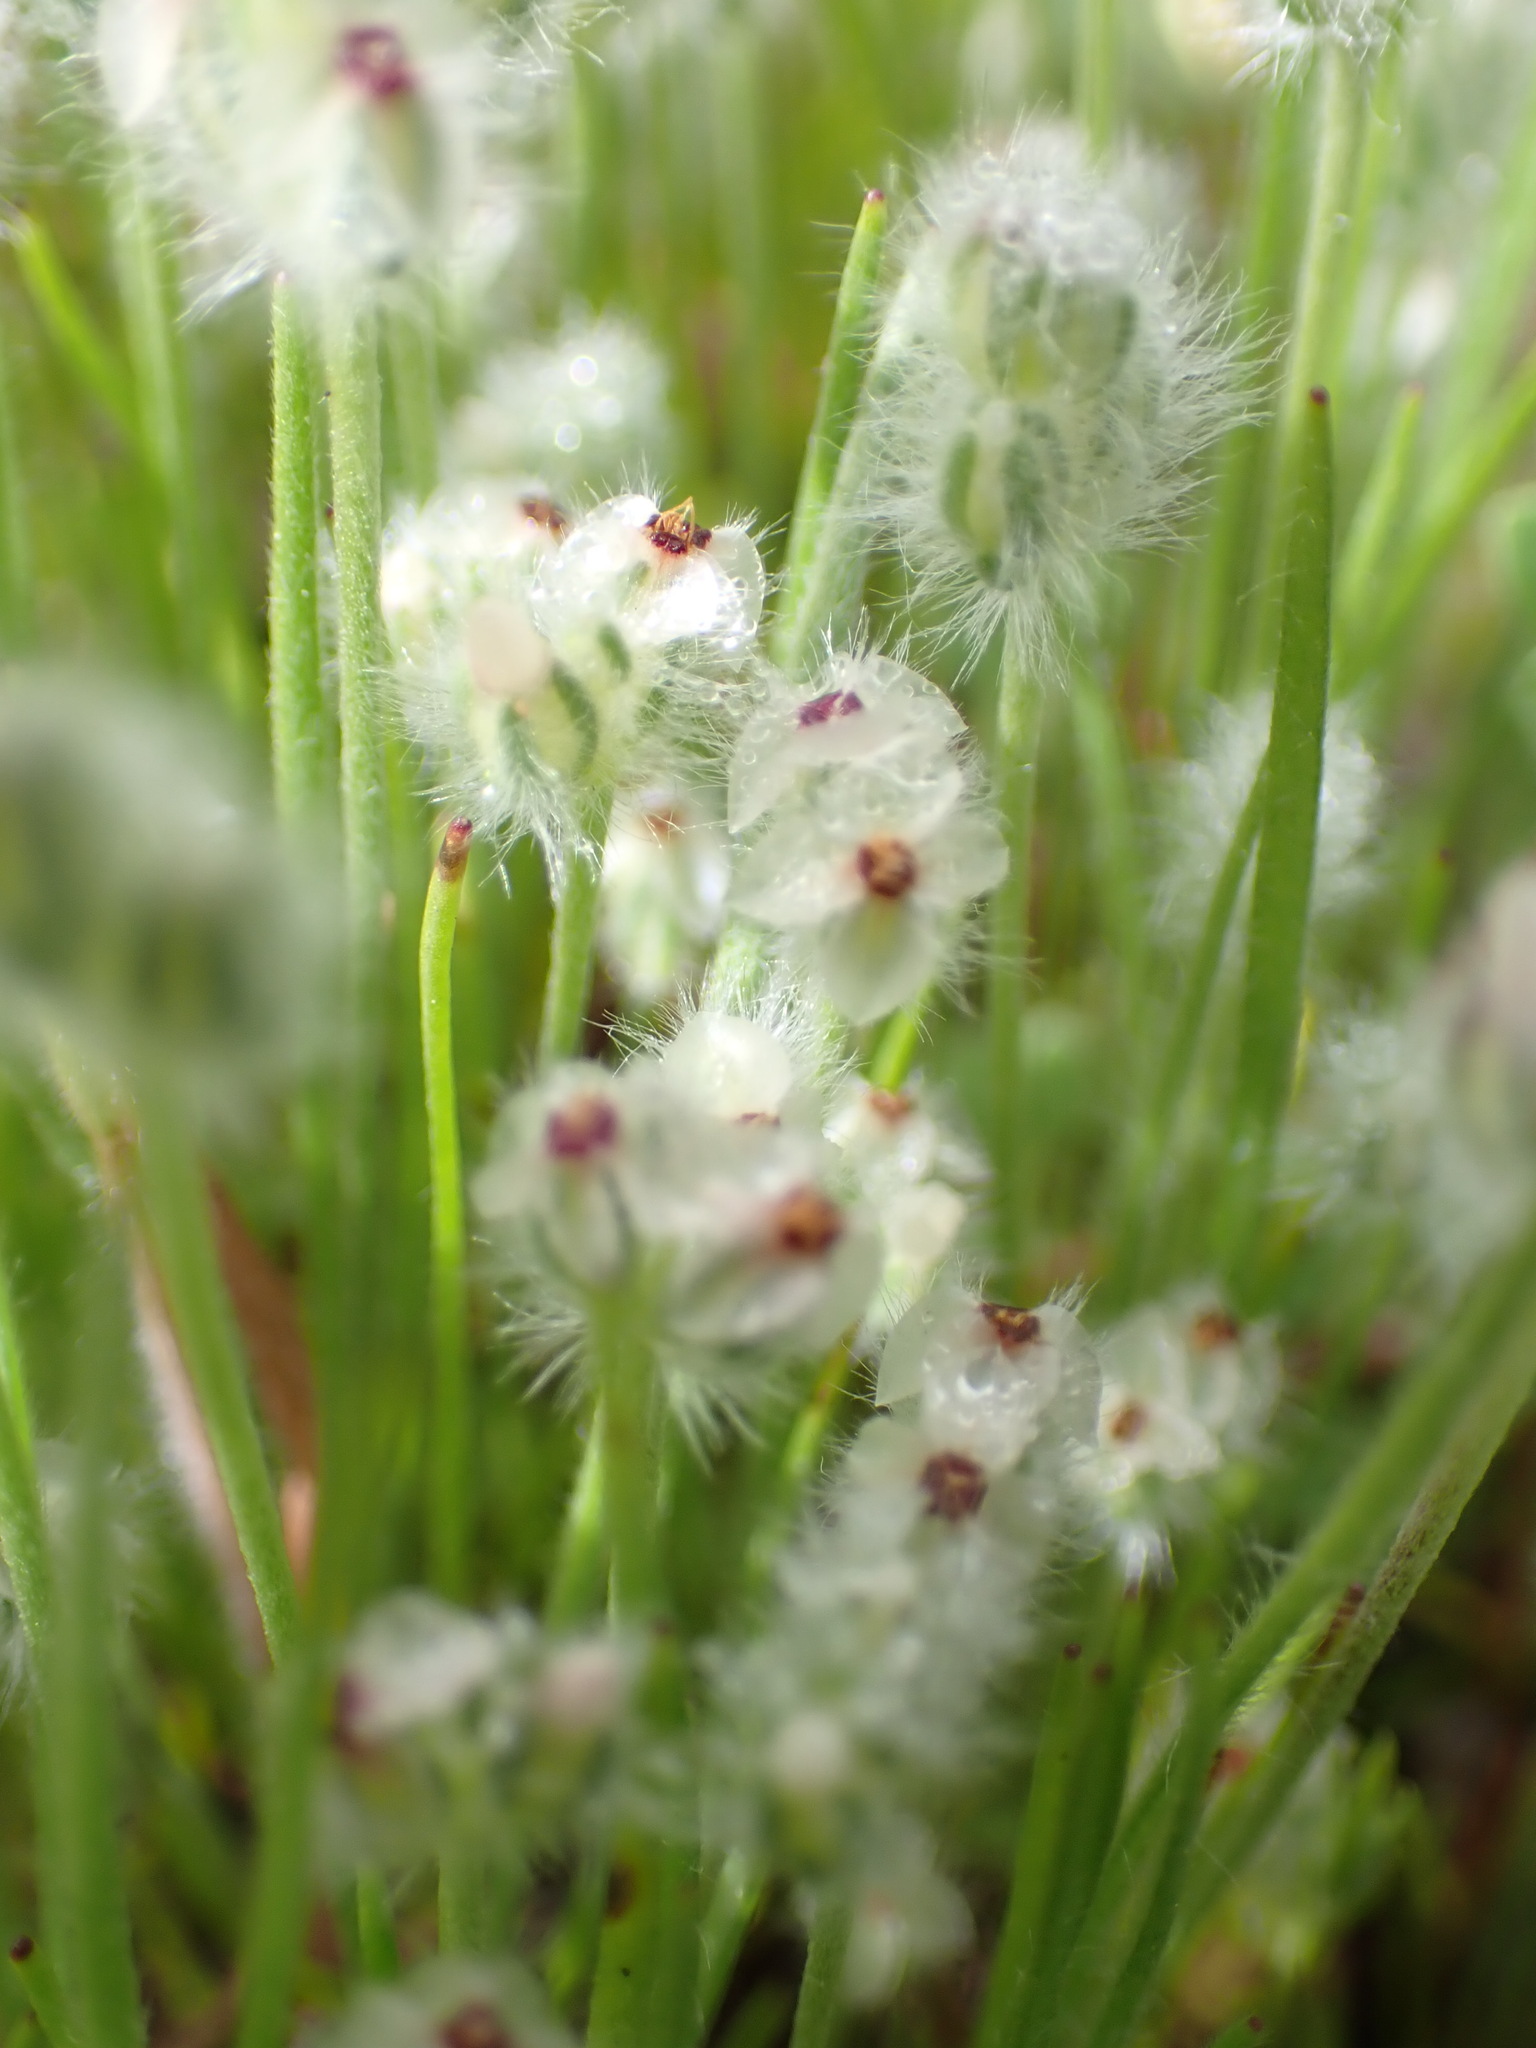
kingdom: Plantae
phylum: Tracheophyta
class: Magnoliopsida
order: Lamiales
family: Plantaginaceae
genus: Plantago
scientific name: Plantago erecta
